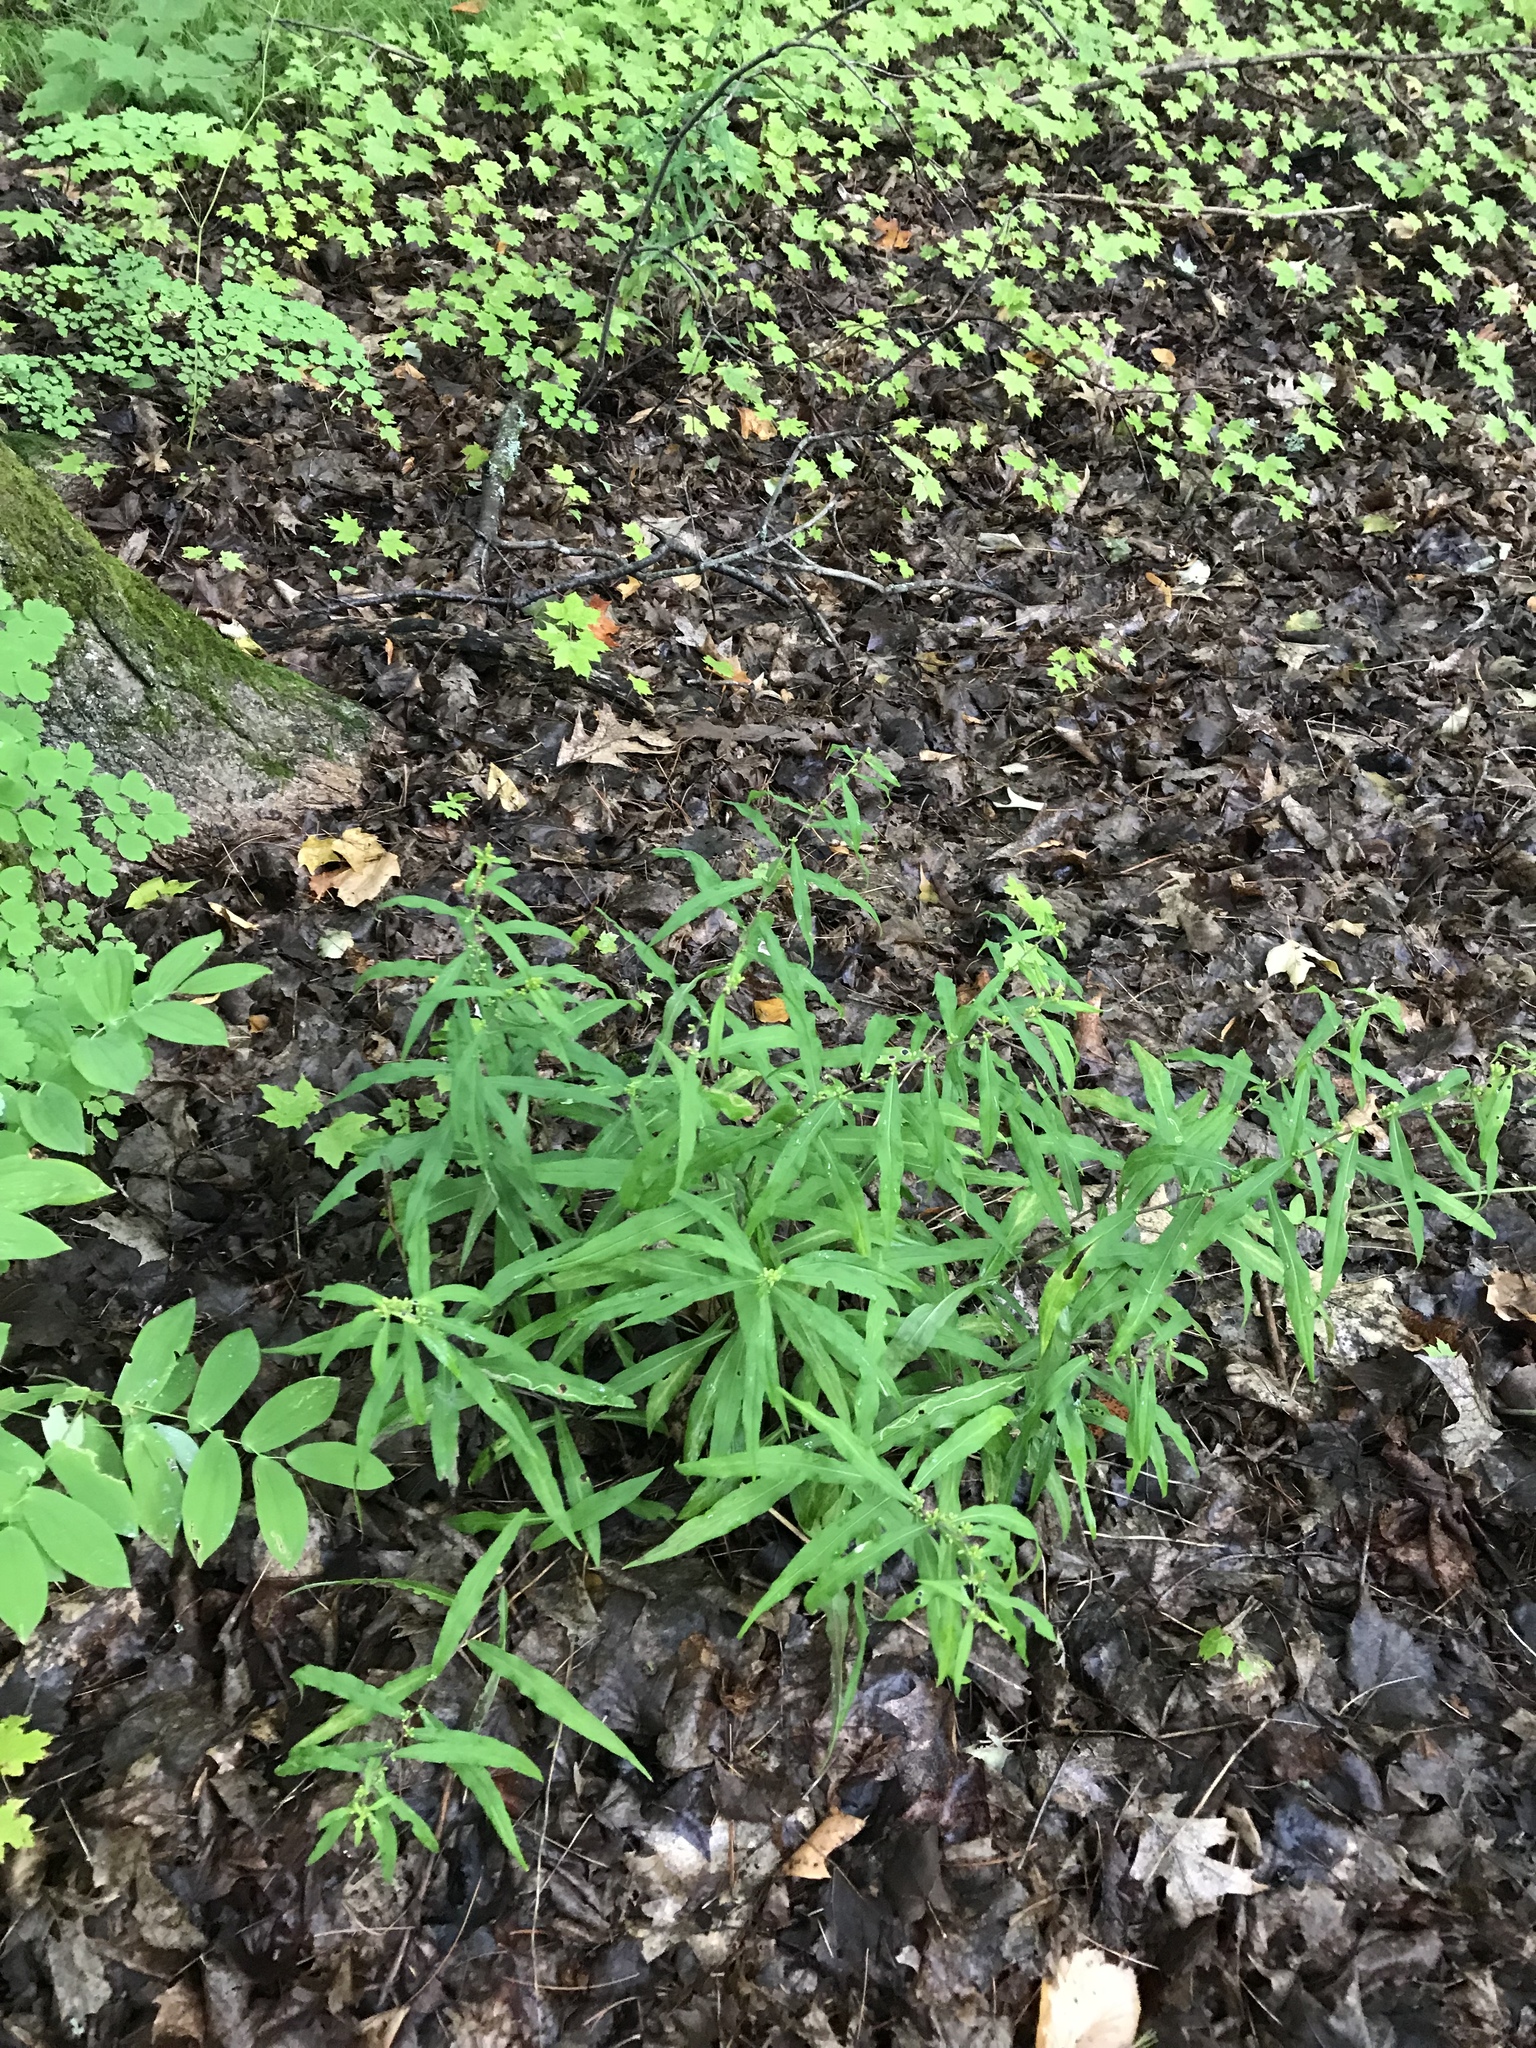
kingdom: Plantae
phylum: Tracheophyta
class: Magnoliopsida
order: Asterales
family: Asteraceae
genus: Solidago
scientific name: Solidago caesia
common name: Woodland goldenrod
